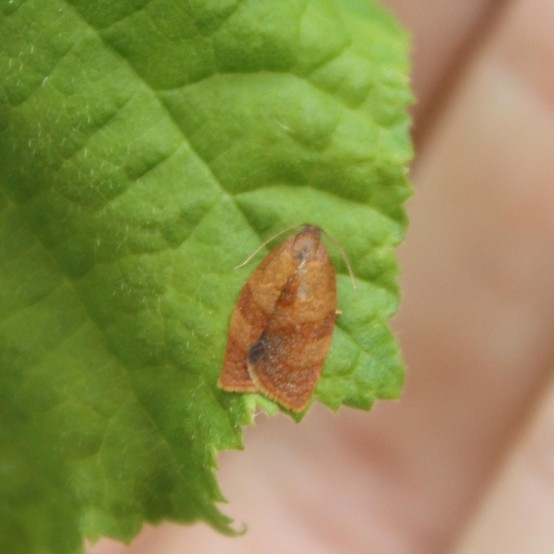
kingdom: Animalia
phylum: Arthropoda
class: Insecta
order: Lepidoptera
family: Tortricidae
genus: Cacoecimorpha
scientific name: Cacoecimorpha pronubana
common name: Carnation tortrix
